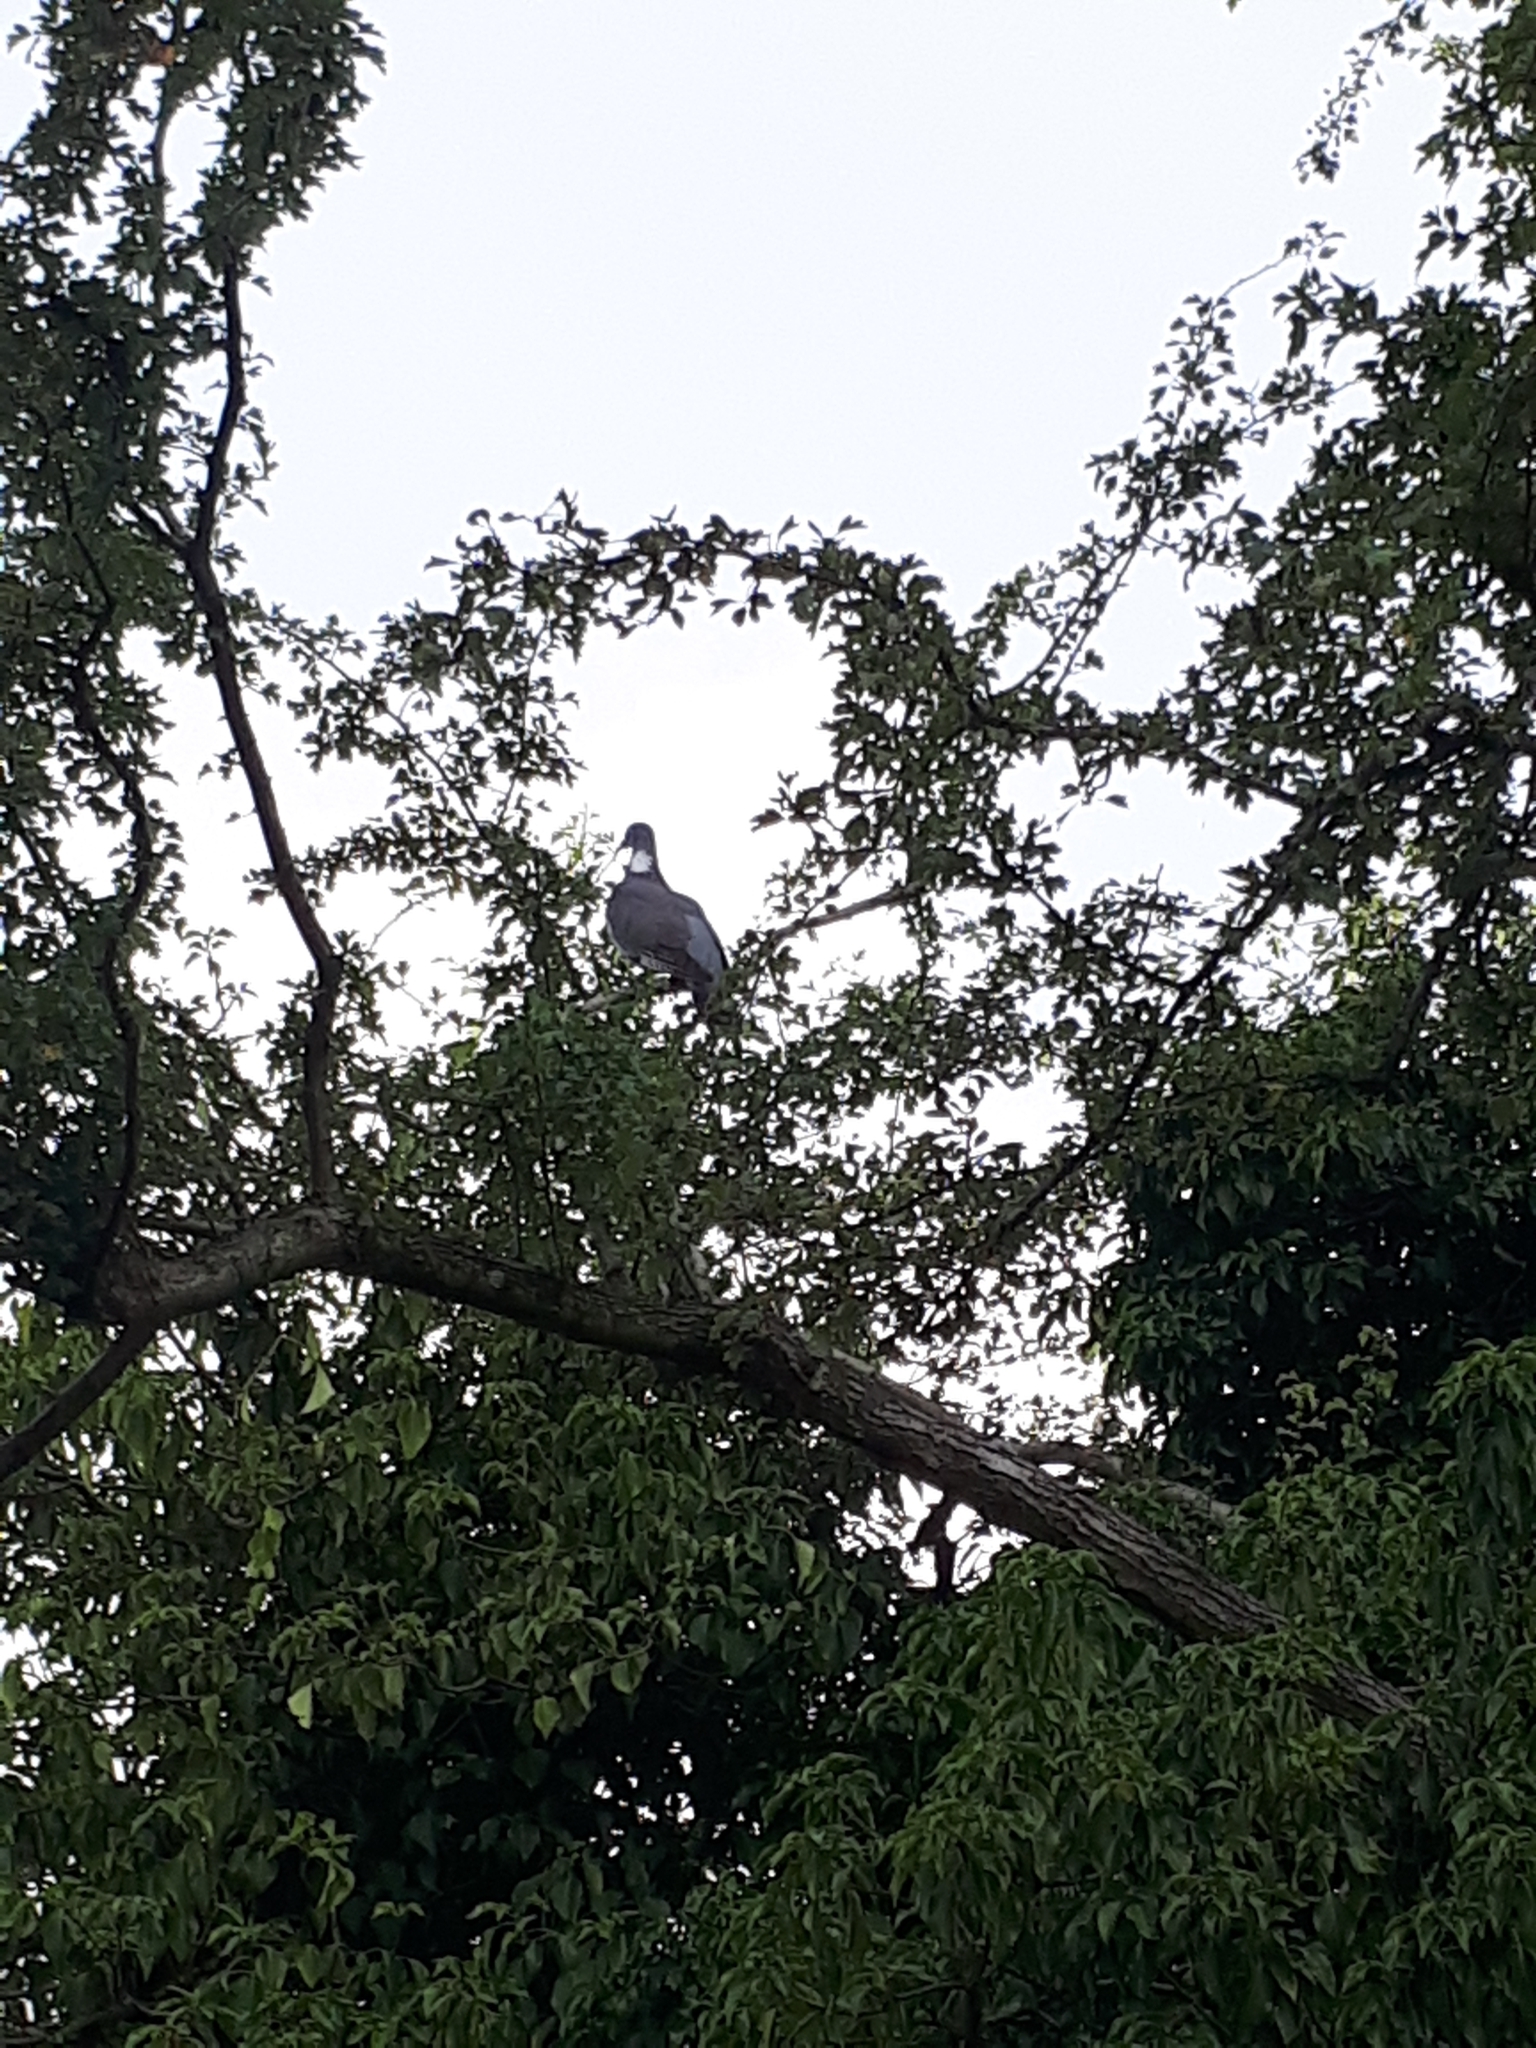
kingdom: Animalia
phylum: Chordata
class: Aves
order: Columbiformes
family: Columbidae
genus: Columba
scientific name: Columba palumbus
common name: Common wood pigeon
